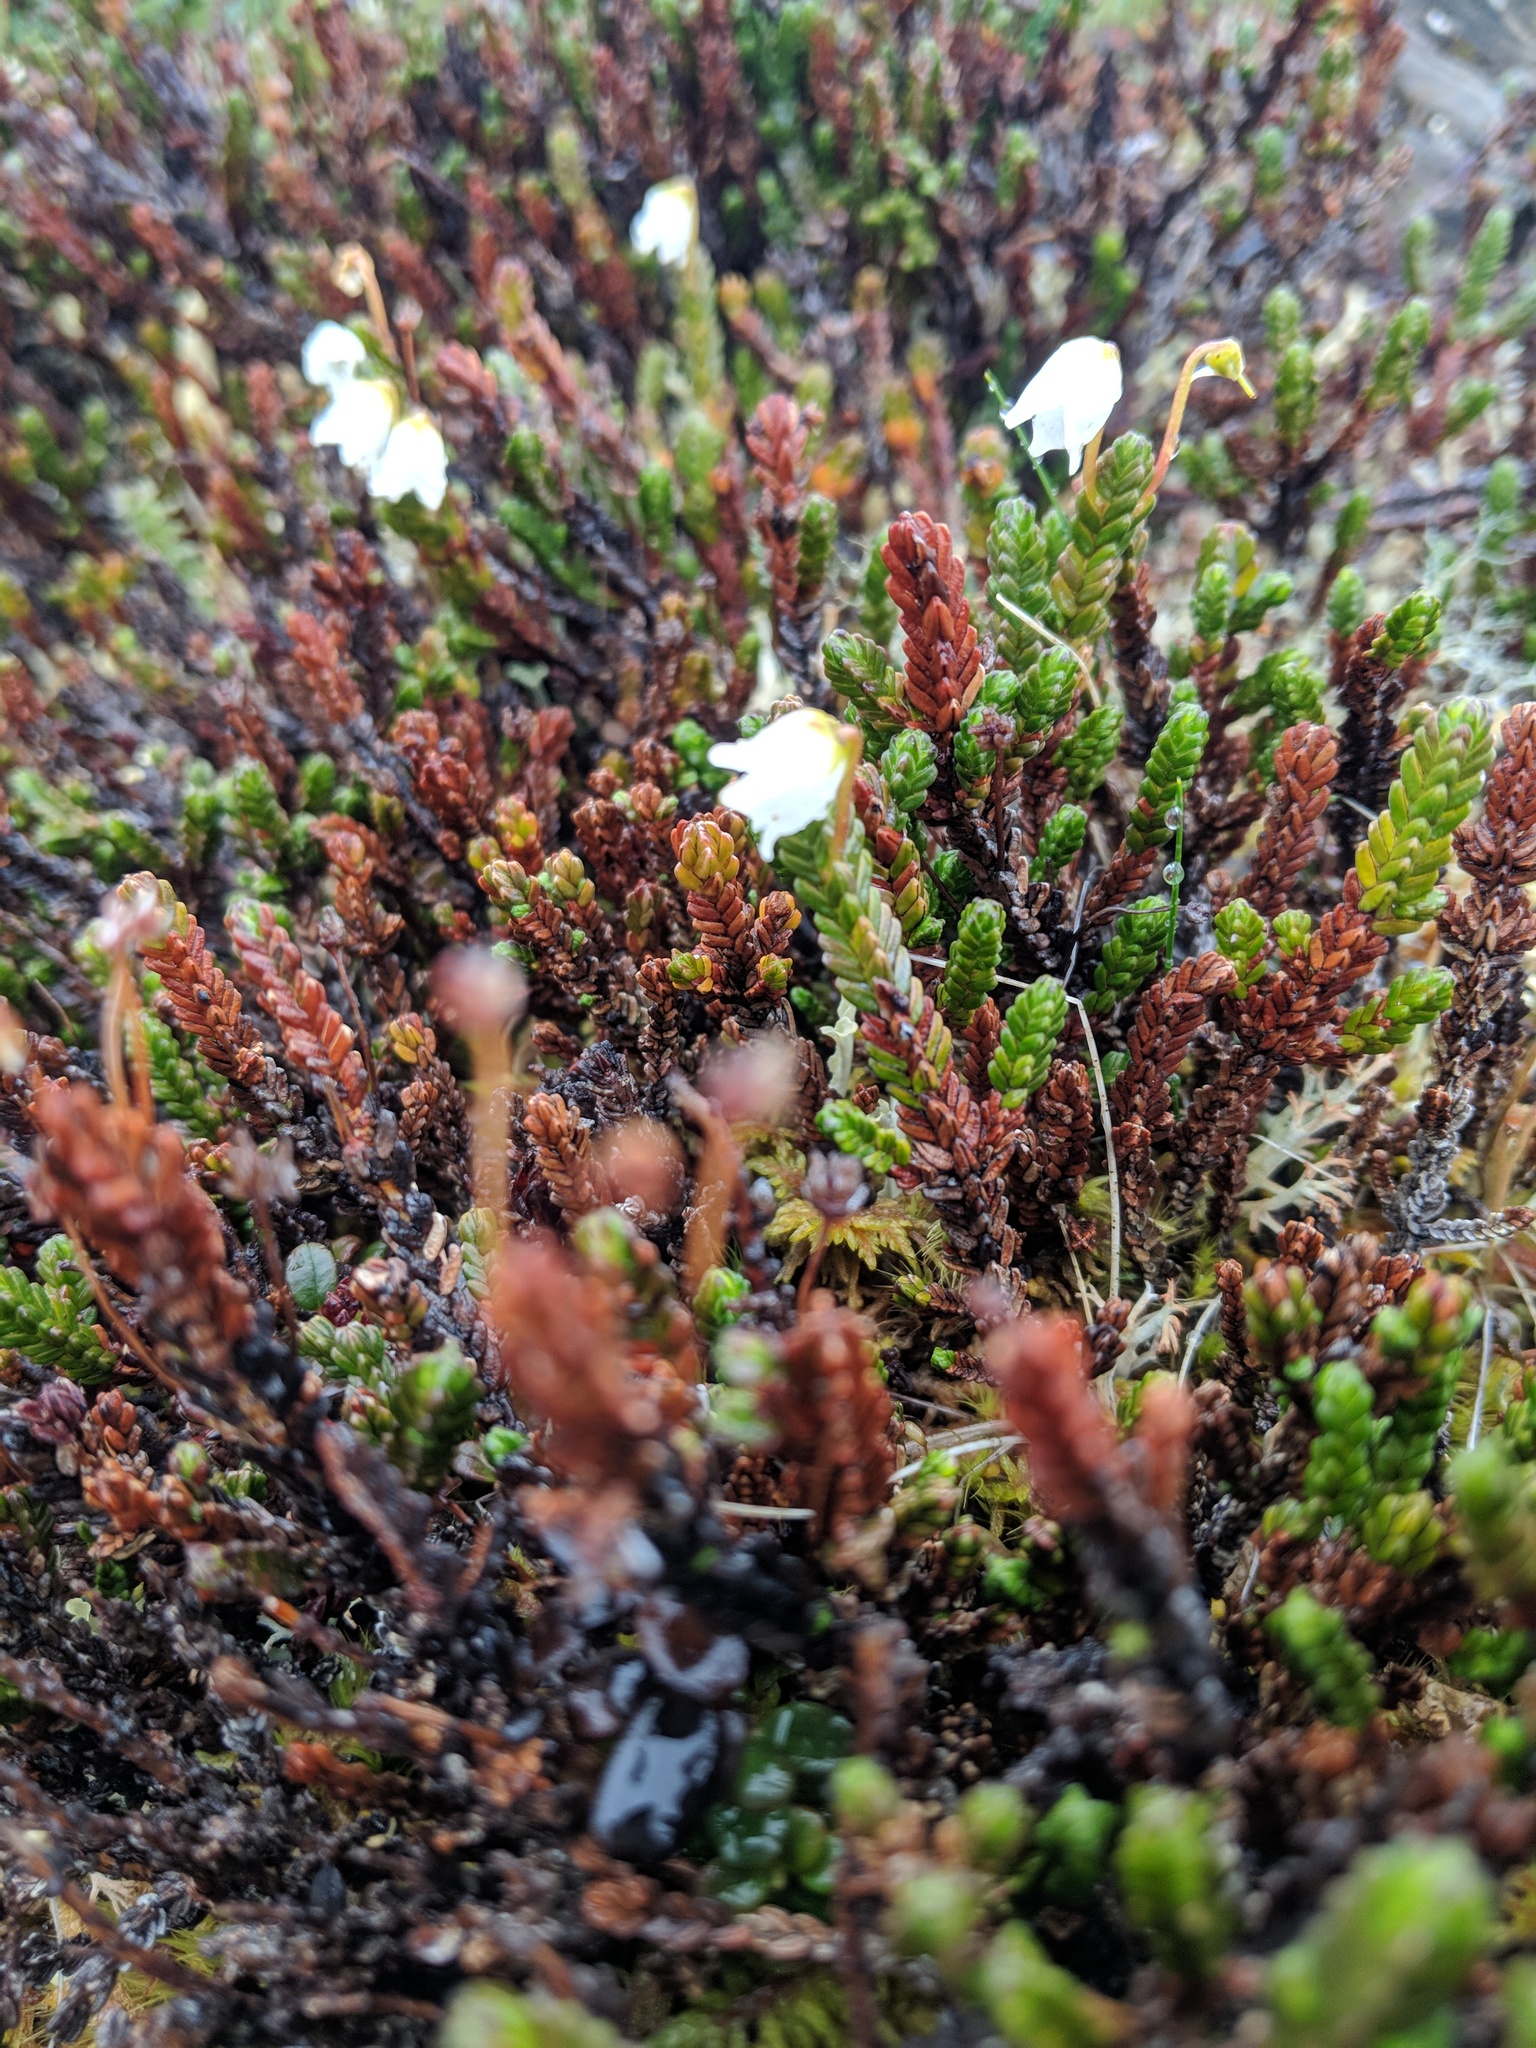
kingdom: Plantae
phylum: Tracheophyta
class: Magnoliopsida
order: Ericales
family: Ericaceae
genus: Cassiope
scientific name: Cassiope tetragona
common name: Arctic bell heather
